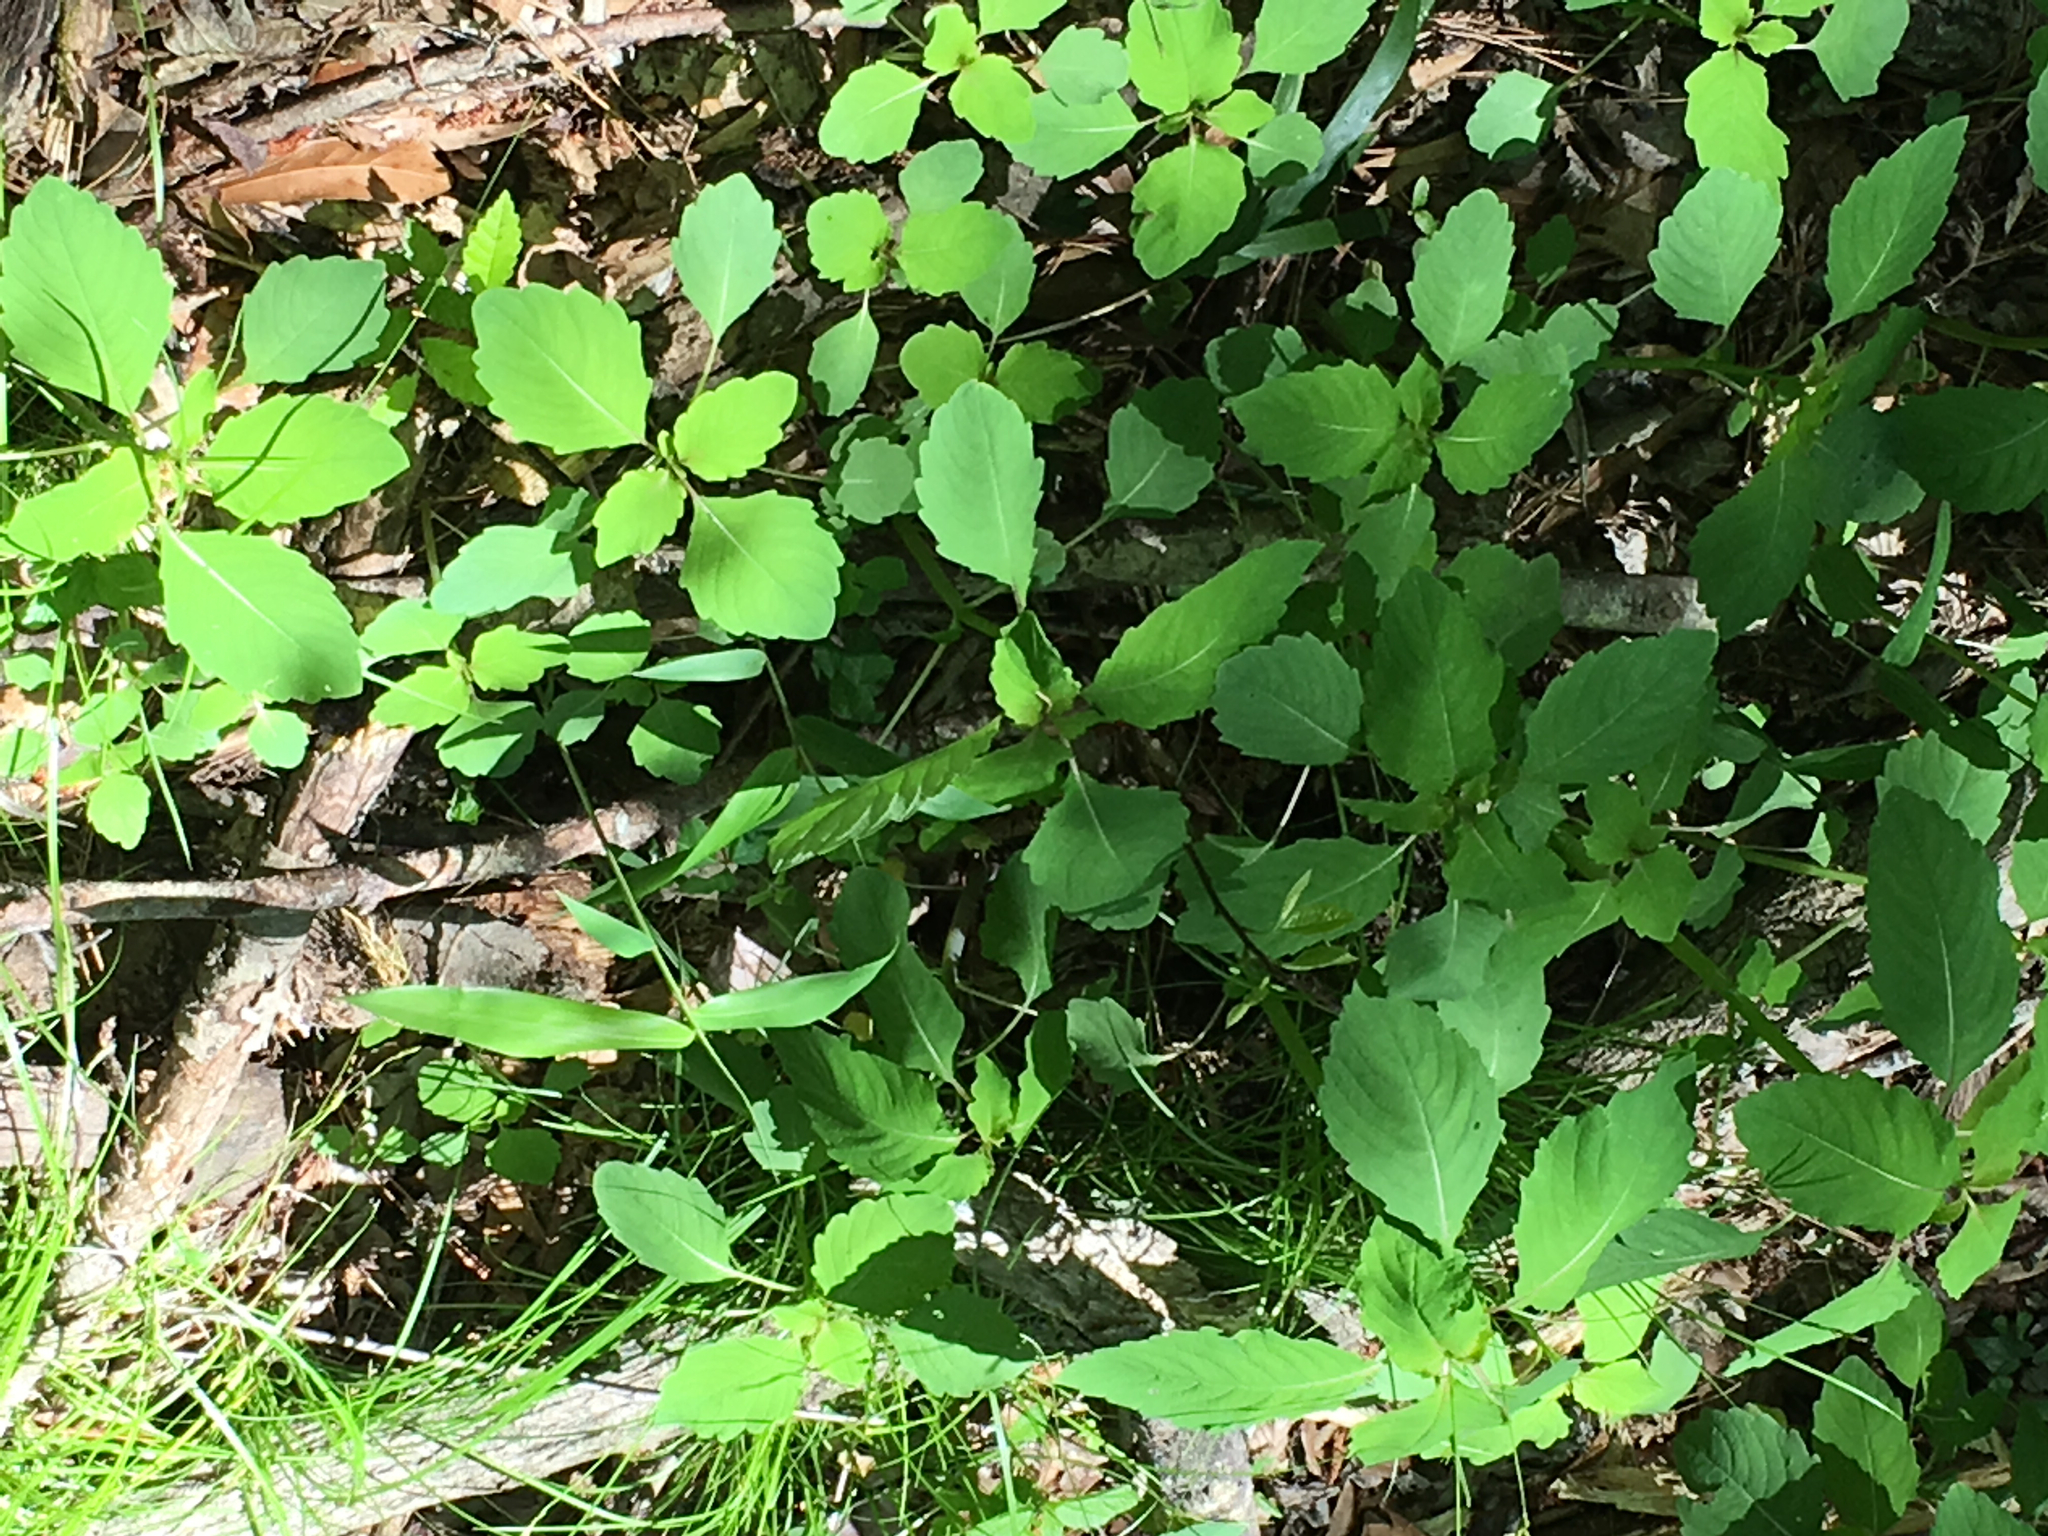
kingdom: Plantae
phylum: Tracheophyta
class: Magnoliopsida
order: Ericales
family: Balsaminaceae
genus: Impatiens
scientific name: Impatiens capensis
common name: Orange balsam
